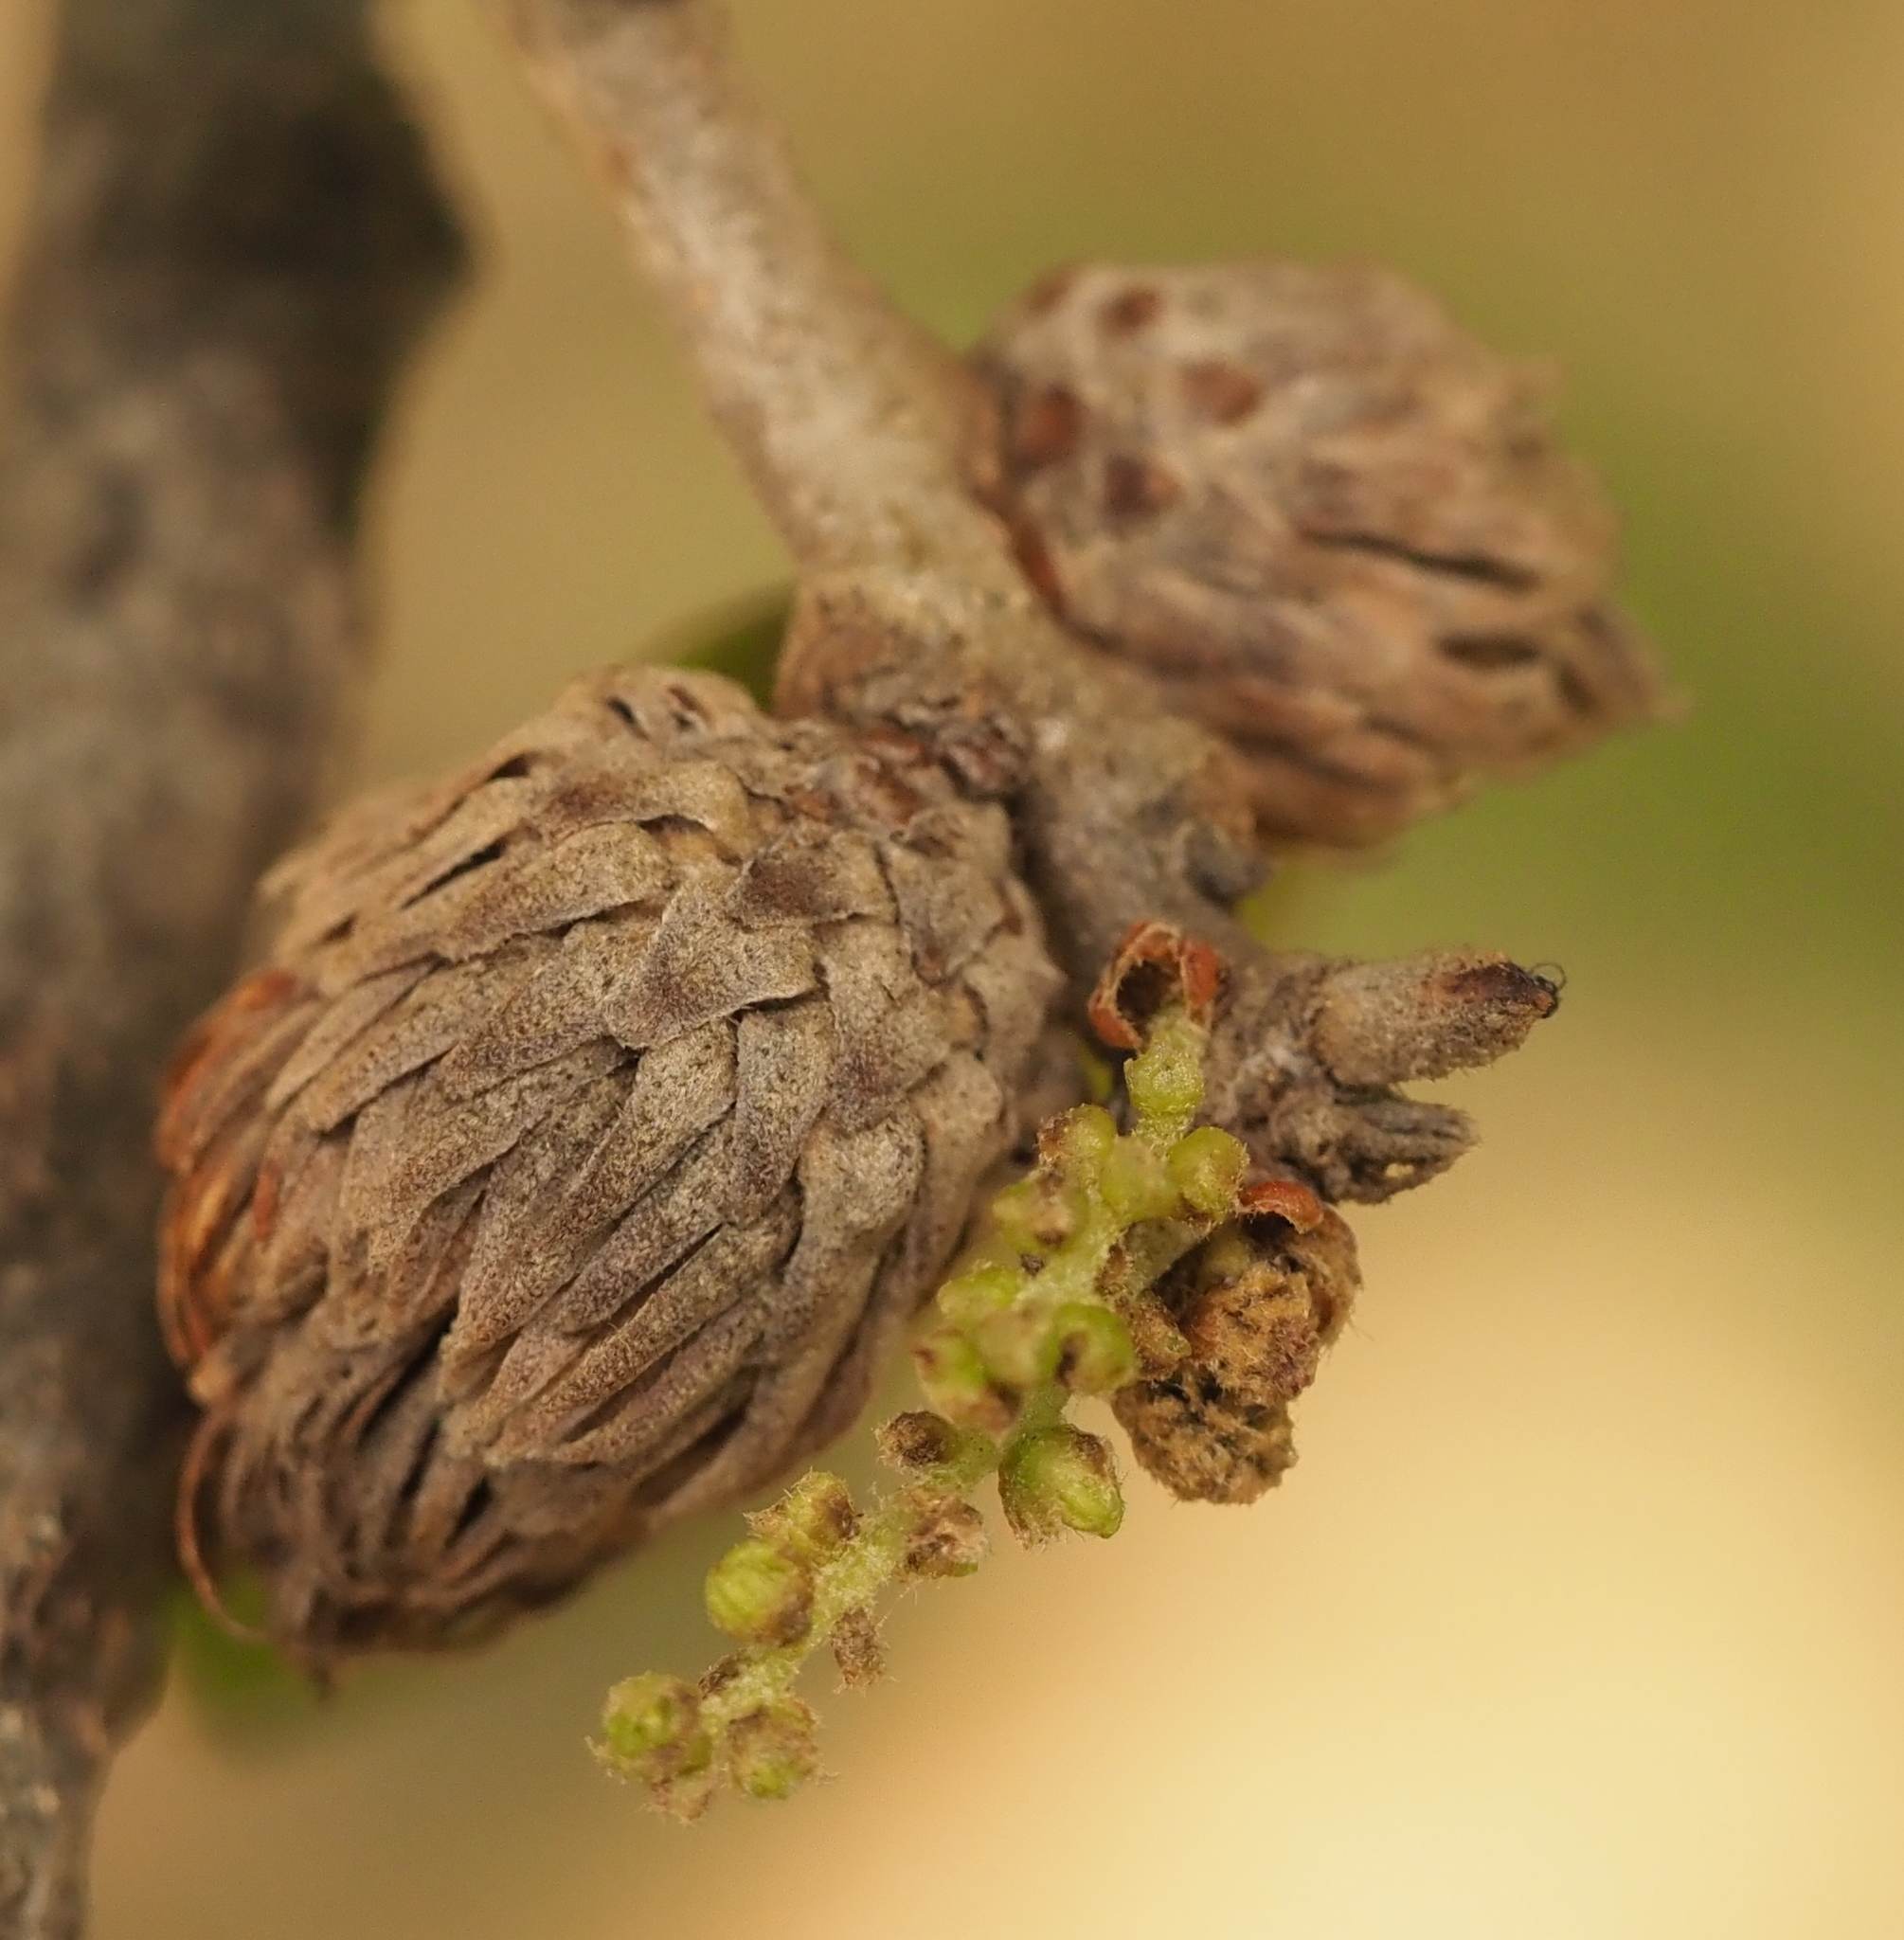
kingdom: Animalia
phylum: Arthropoda
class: Insecta
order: Hymenoptera
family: Cynipidae
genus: Andricus
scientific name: Andricus quercusfoliatus
